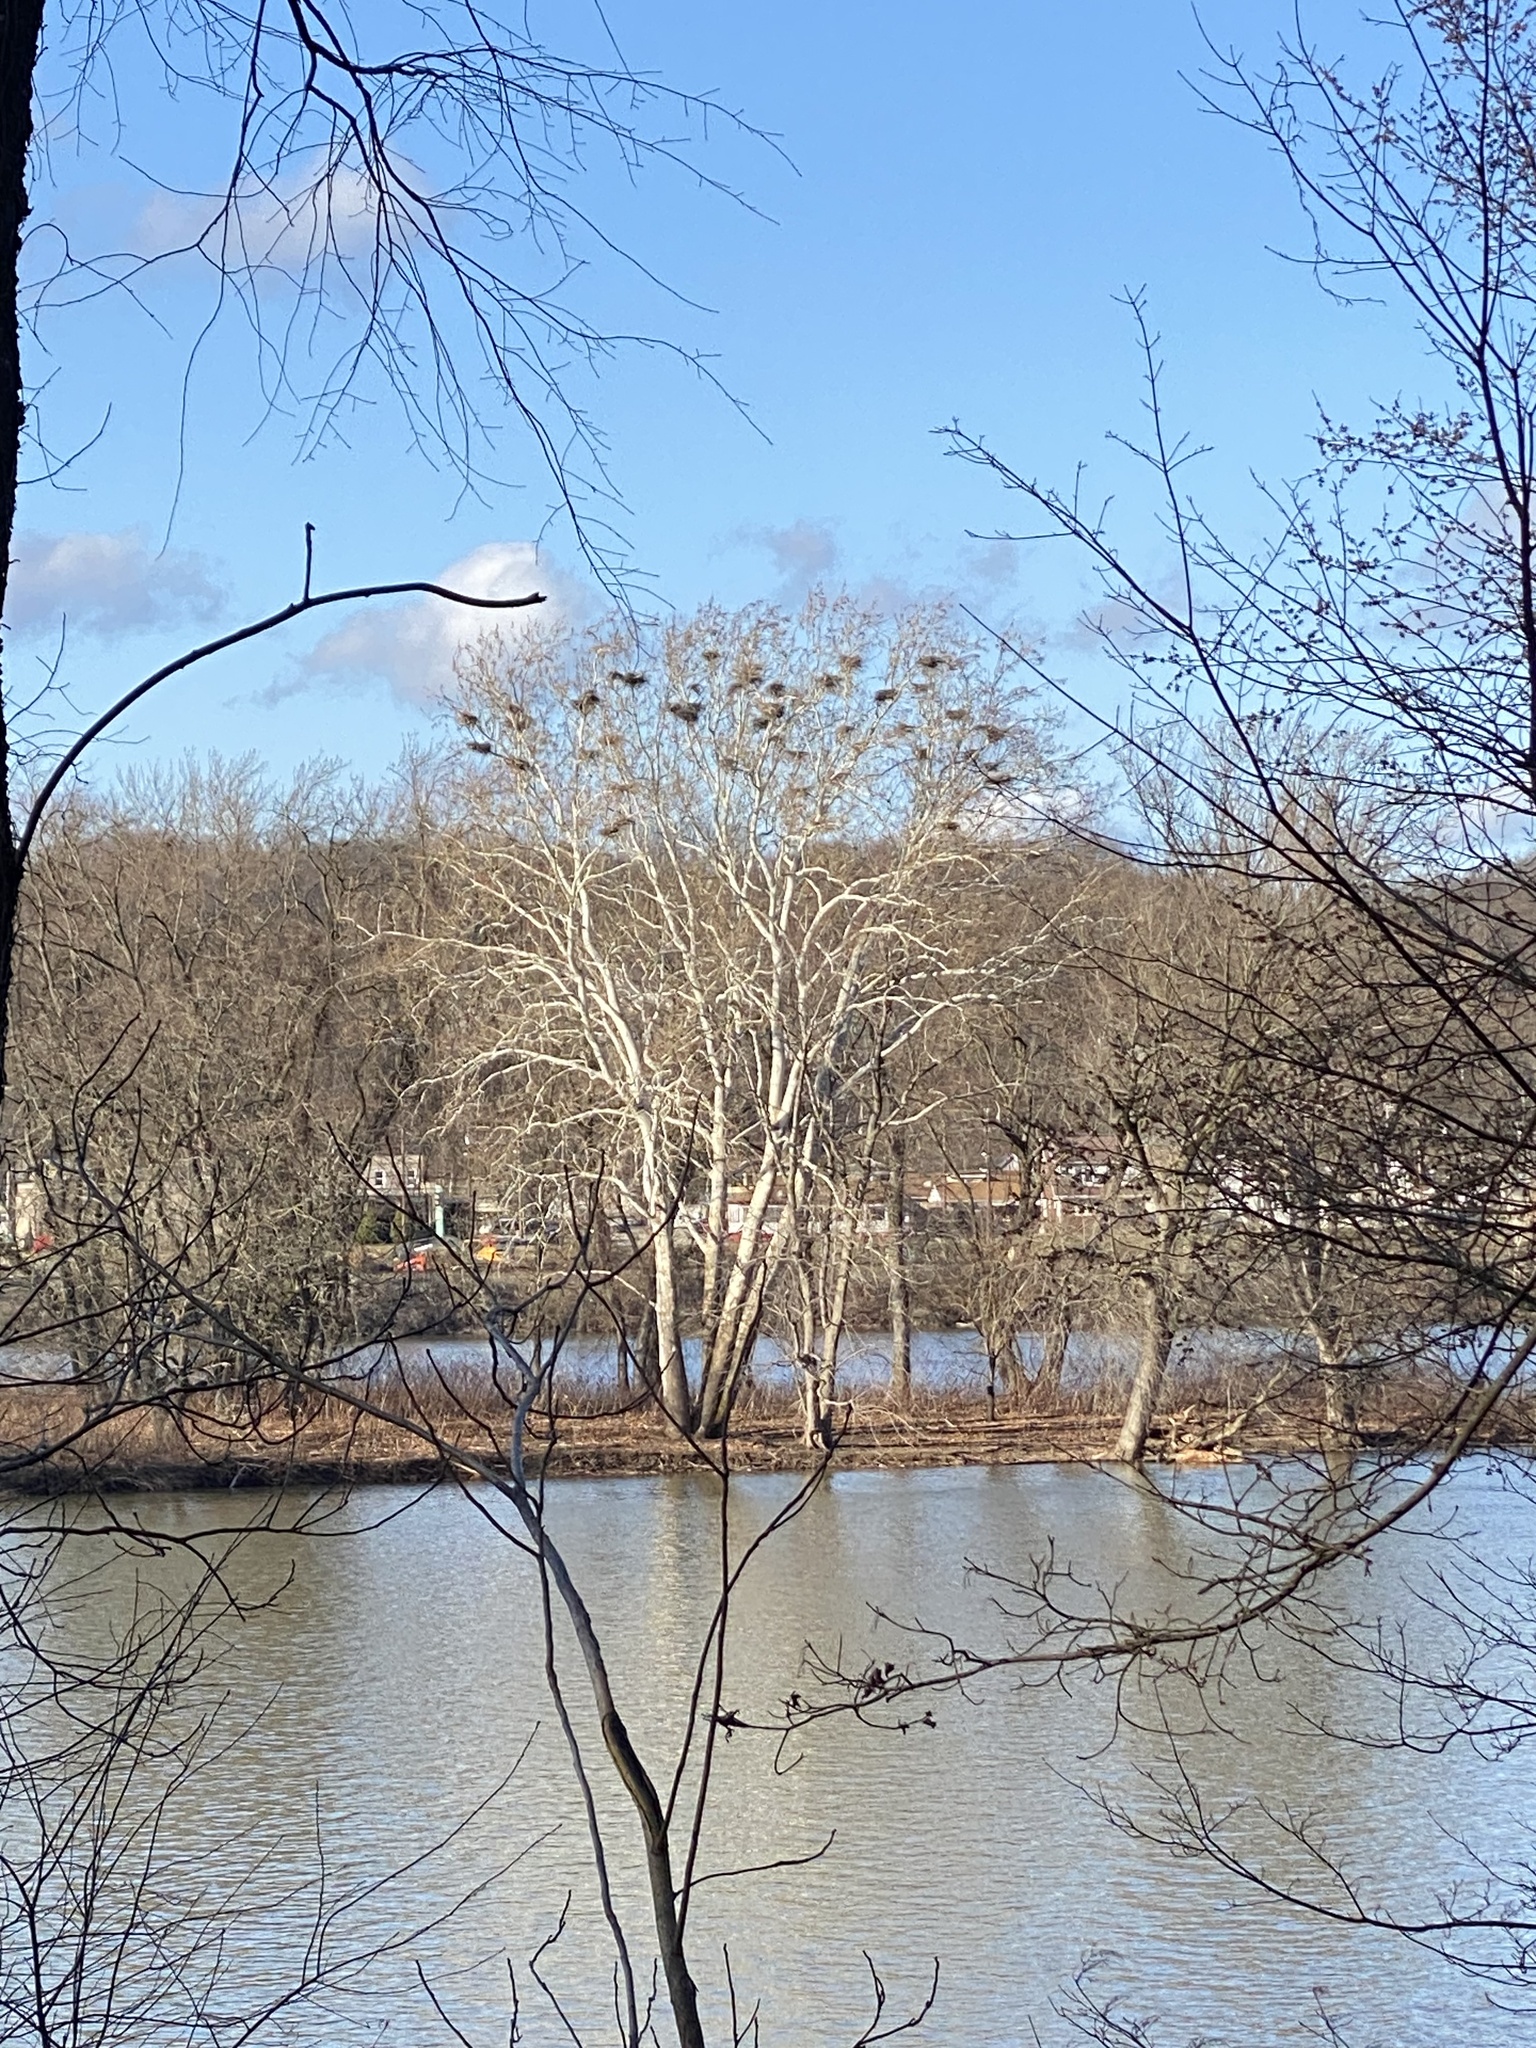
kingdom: Plantae
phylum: Tracheophyta
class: Magnoliopsida
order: Proteales
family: Platanaceae
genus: Platanus
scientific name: Platanus occidentalis
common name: American sycamore
